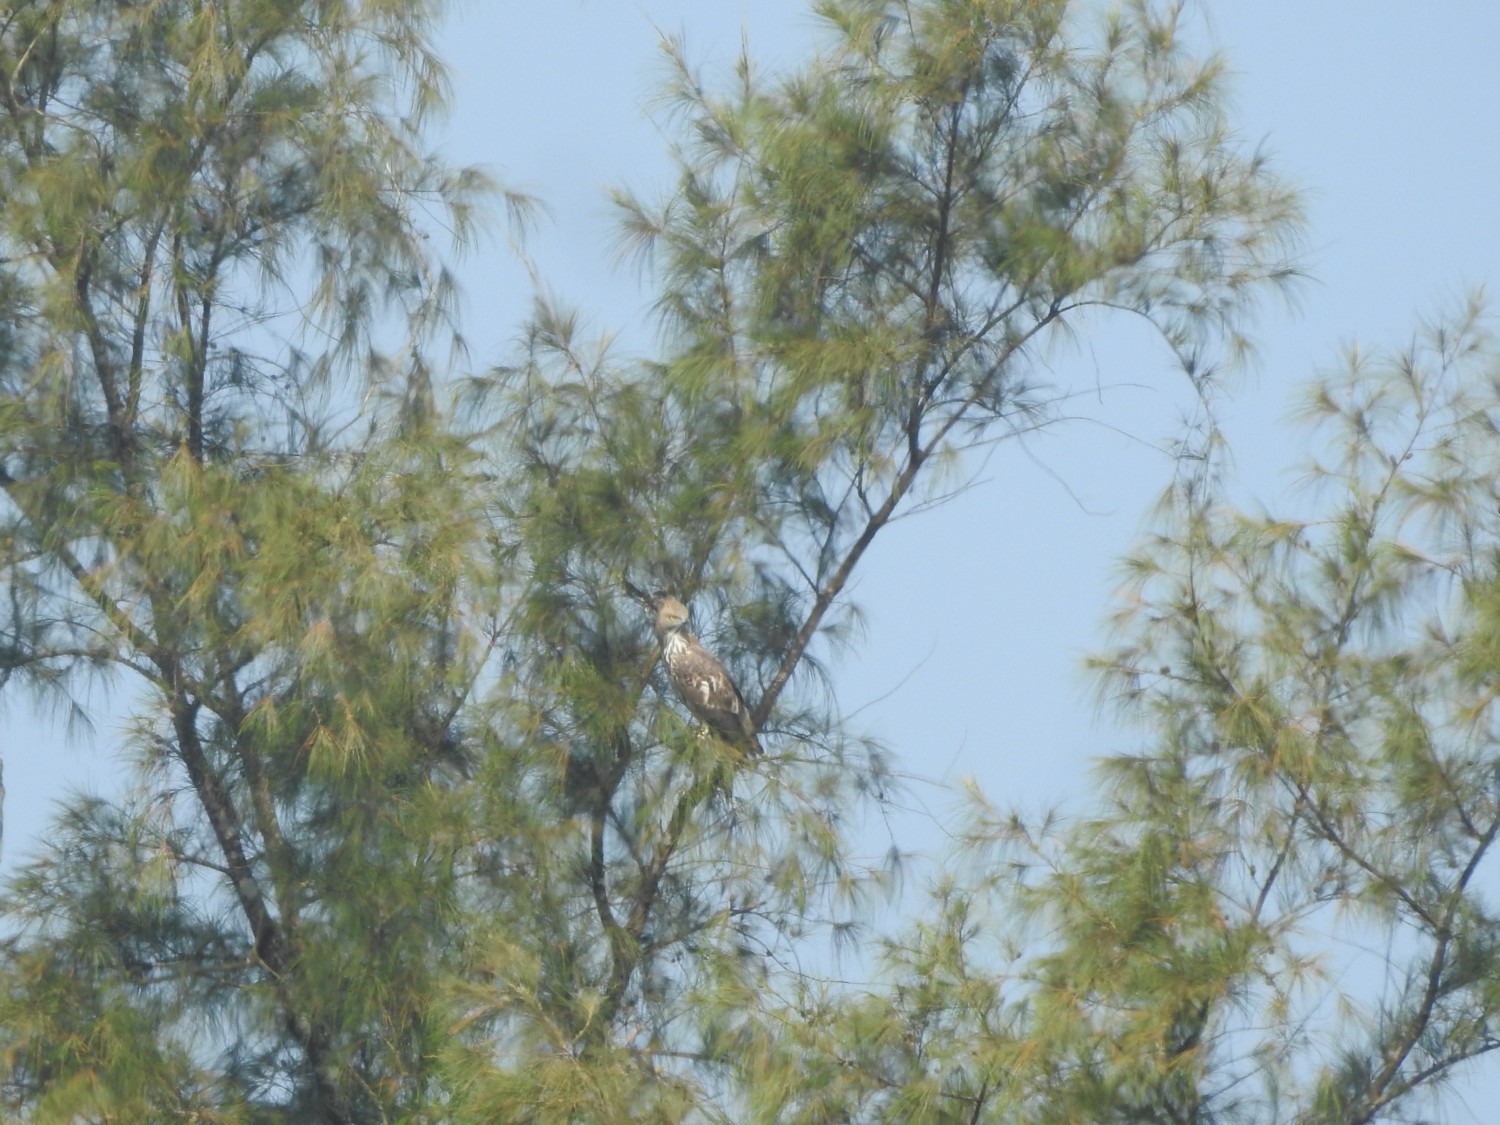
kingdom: Animalia
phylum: Chordata
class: Aves
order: Accipitriformes
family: Accipitridae
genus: Nisaetus
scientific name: Nisaetus cirrhatus
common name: Changeable hawk-eagle
